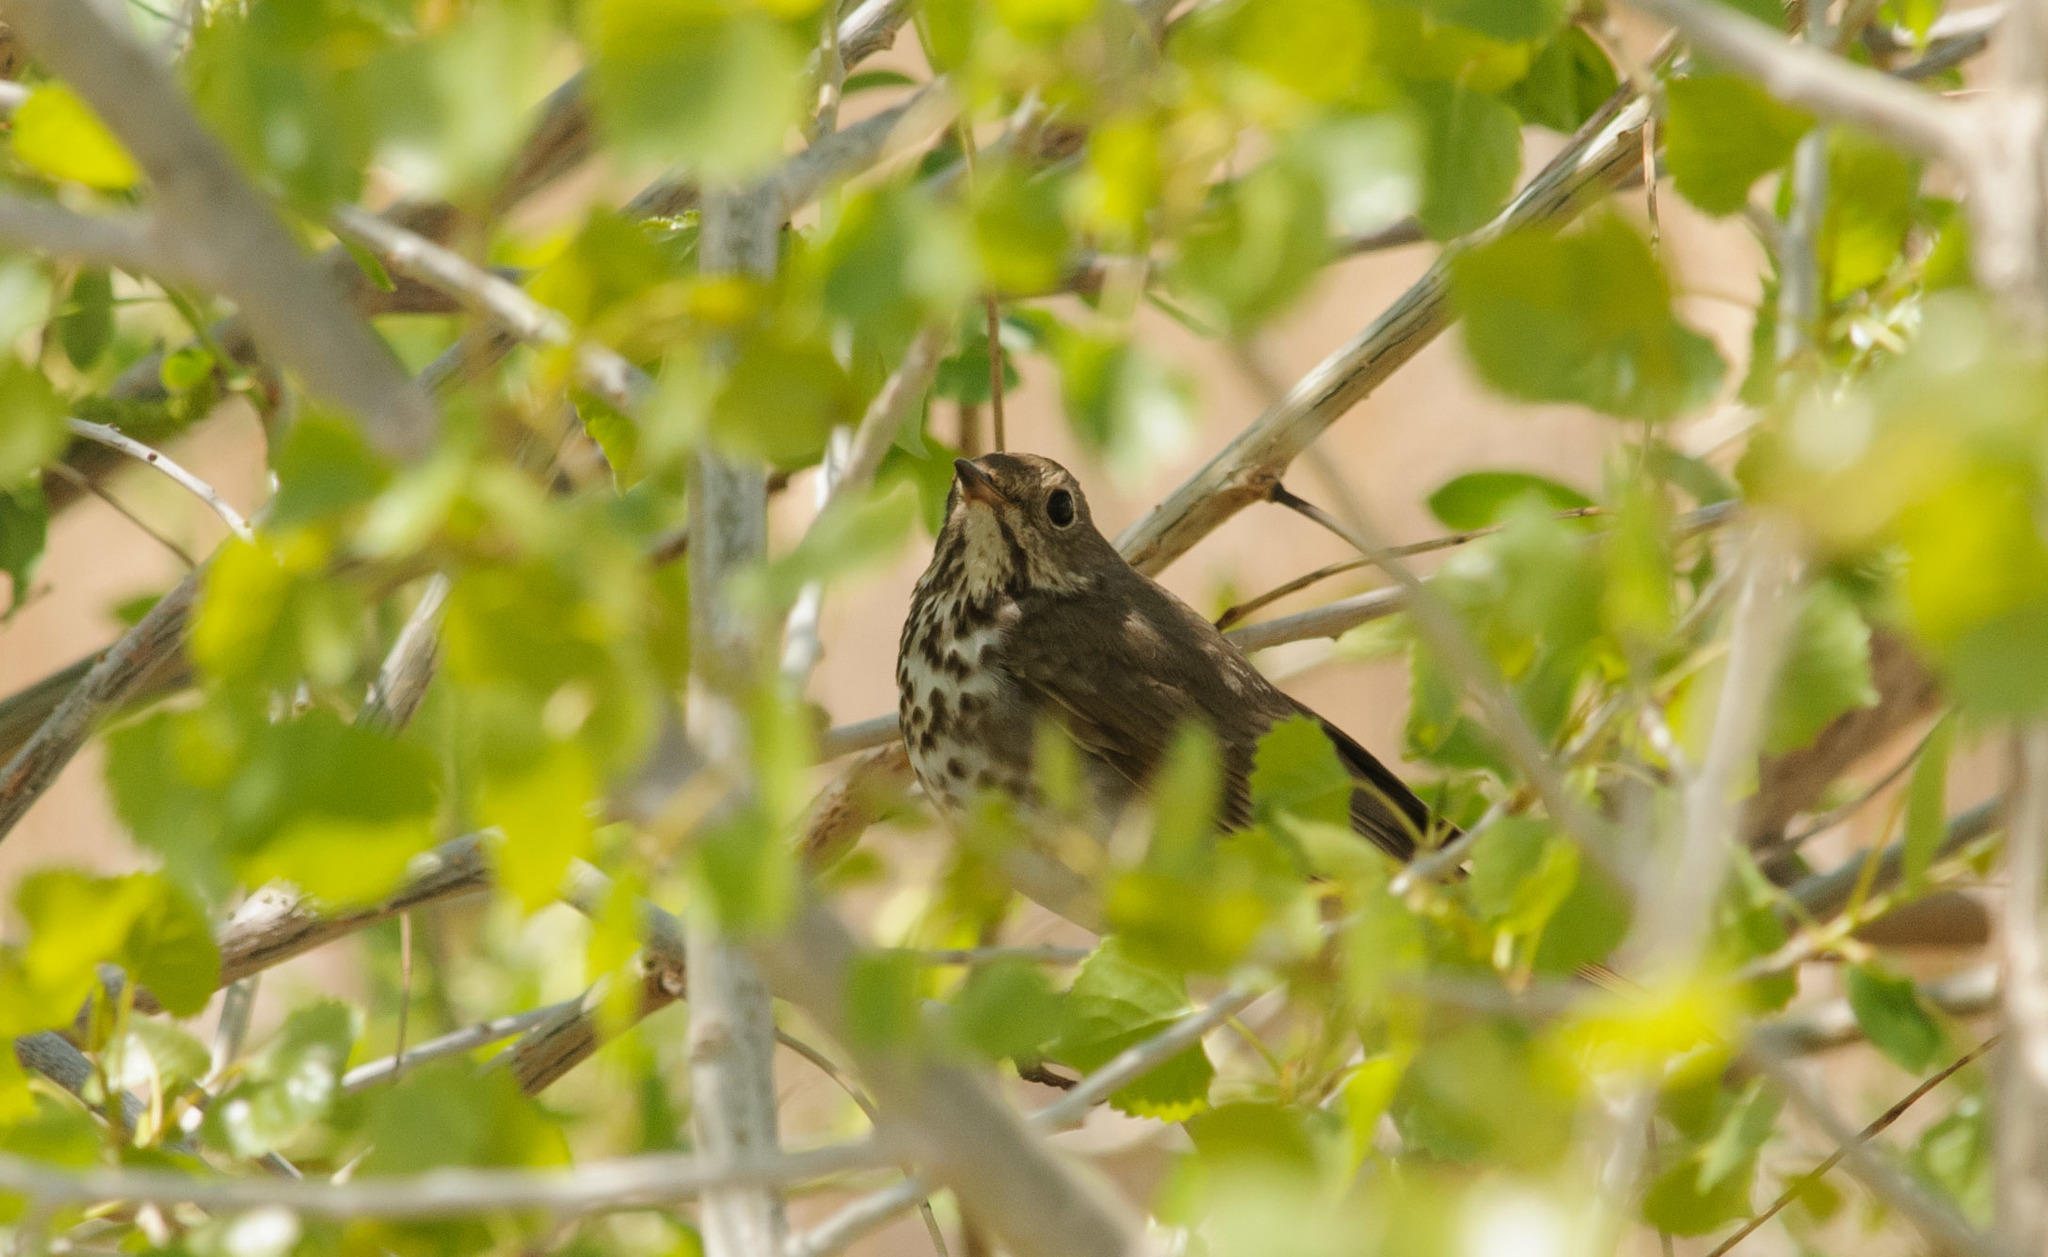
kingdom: Animalia
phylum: Chordata
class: Aves
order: Passeriformes
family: Turdidae
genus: Catharus
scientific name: Catharus guttatus
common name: Hermit thrush
